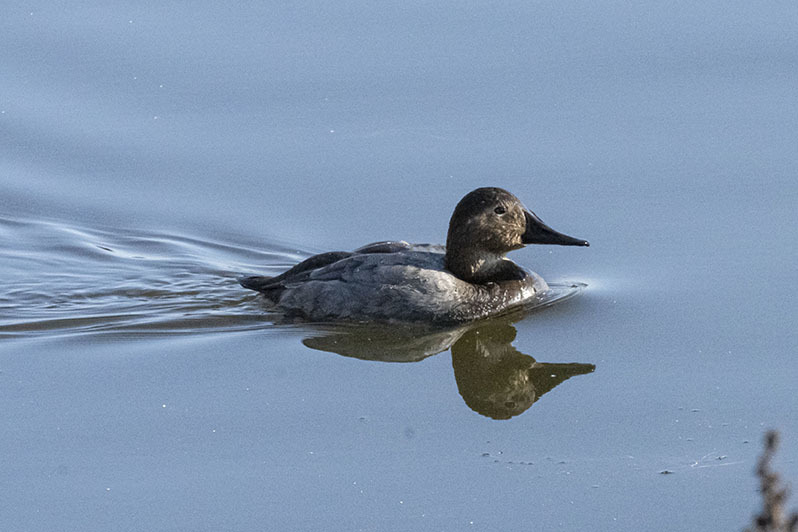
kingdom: Animalia
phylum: Chordata
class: Aves
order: Anseriformes
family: Anatidae
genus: Aythya
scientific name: Aythya valisineria
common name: Canvasback
